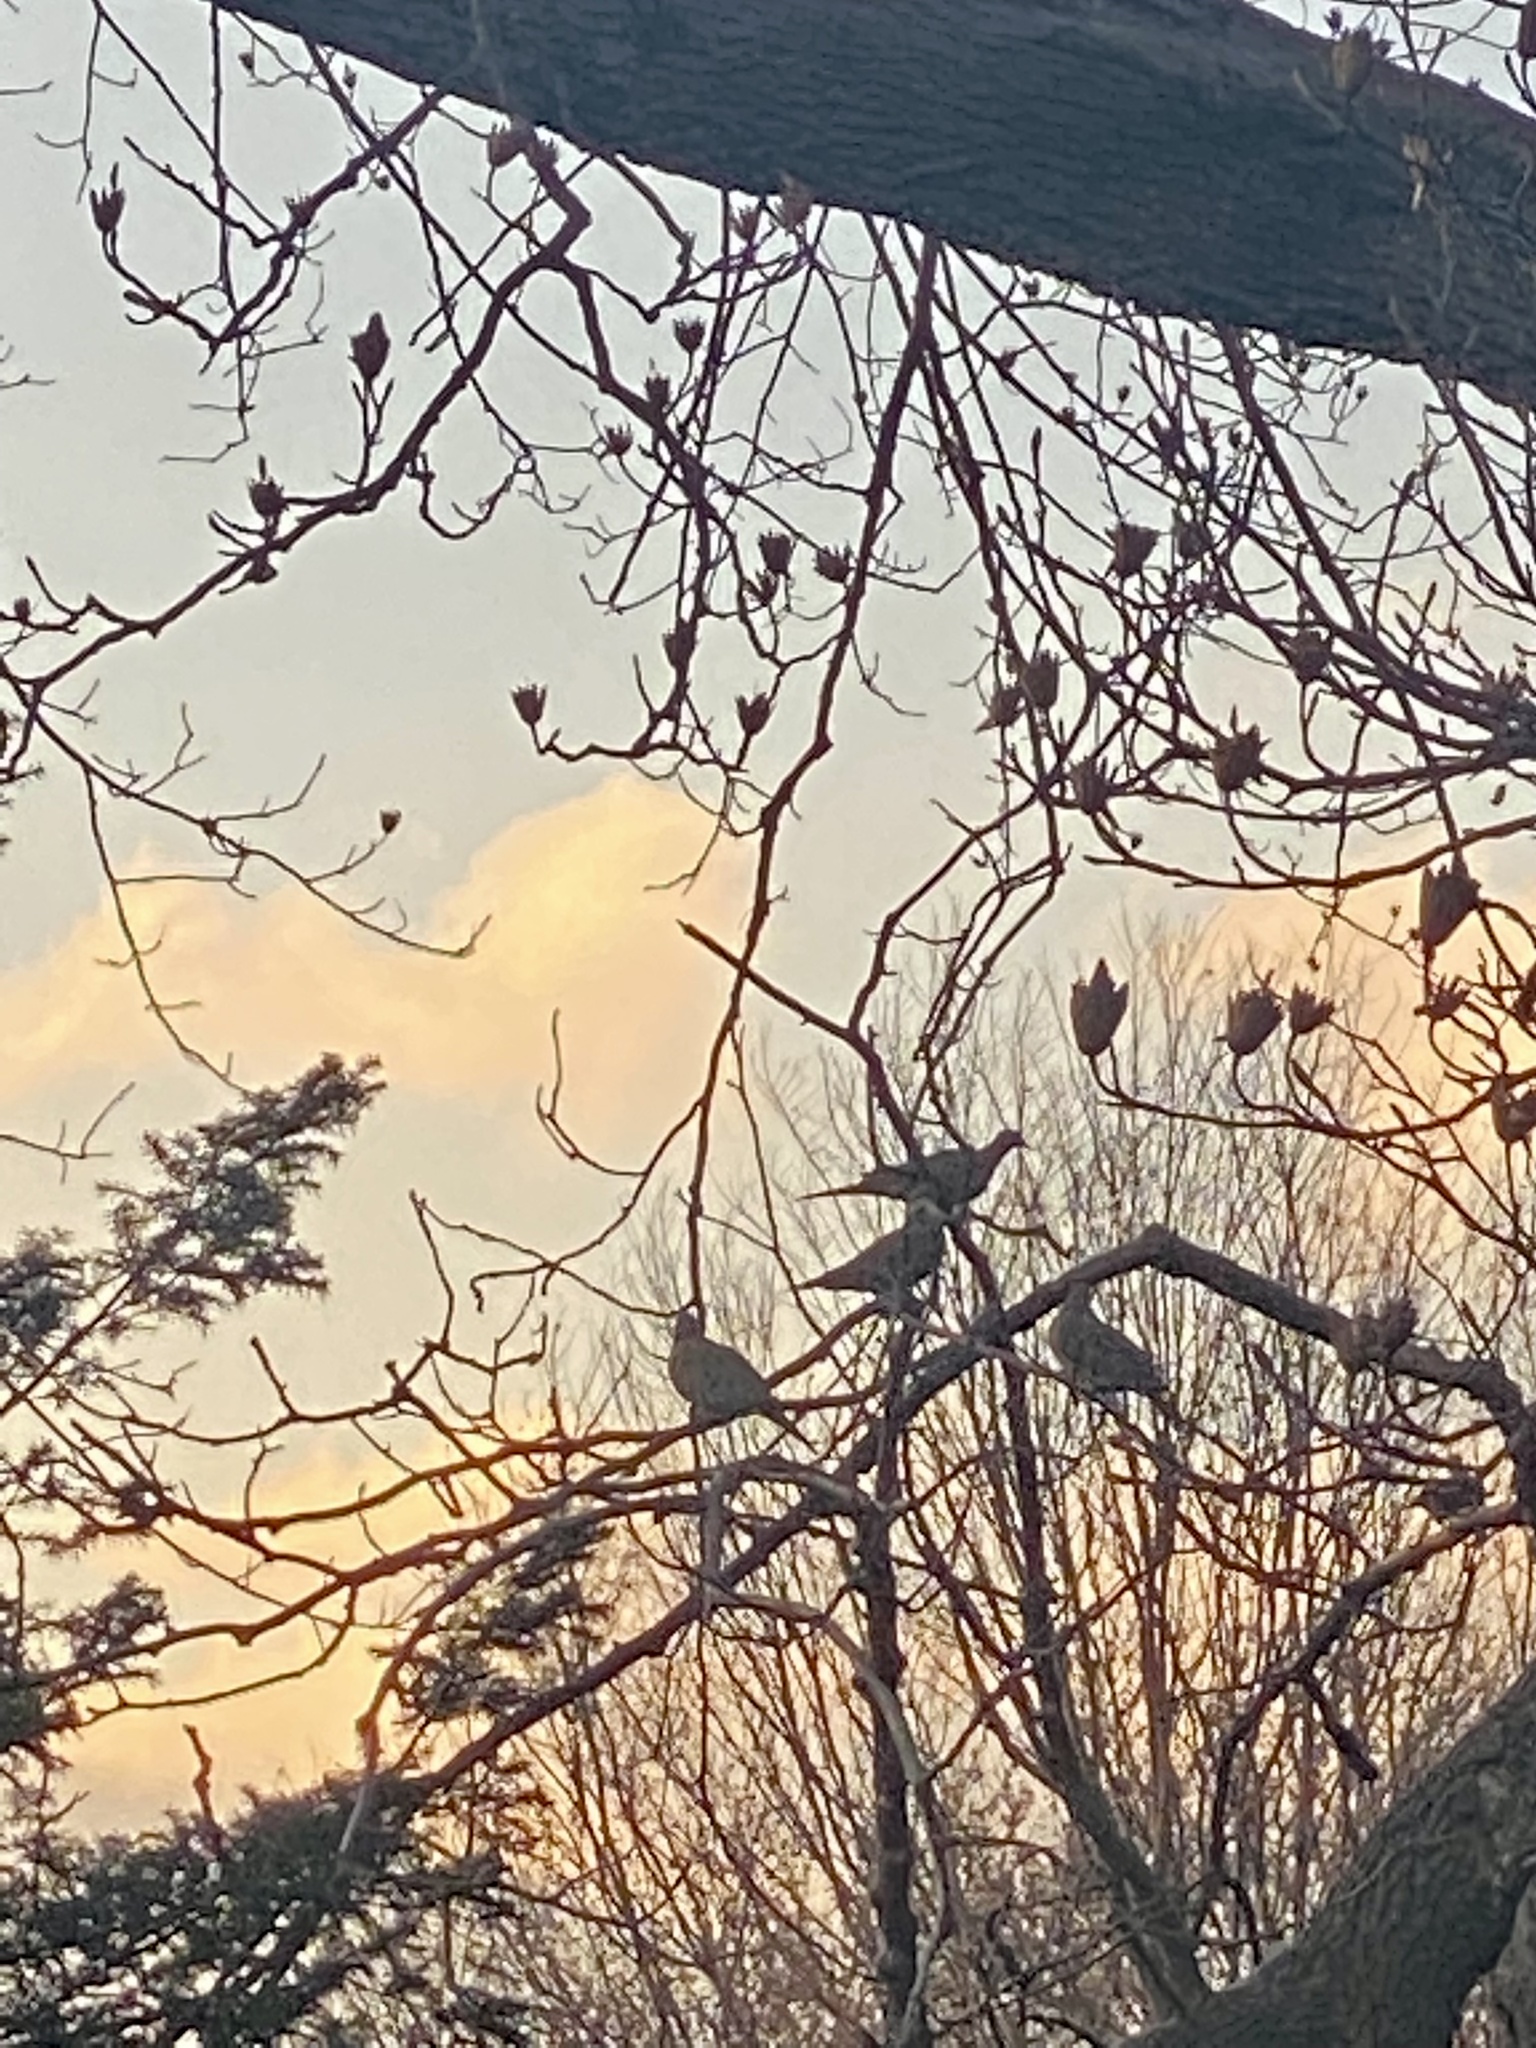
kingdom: Animalia
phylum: Chordata
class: Aves
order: Columbiformes
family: Columbidae
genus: Zenaida
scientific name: Zenaida macroura
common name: Mourning dove
